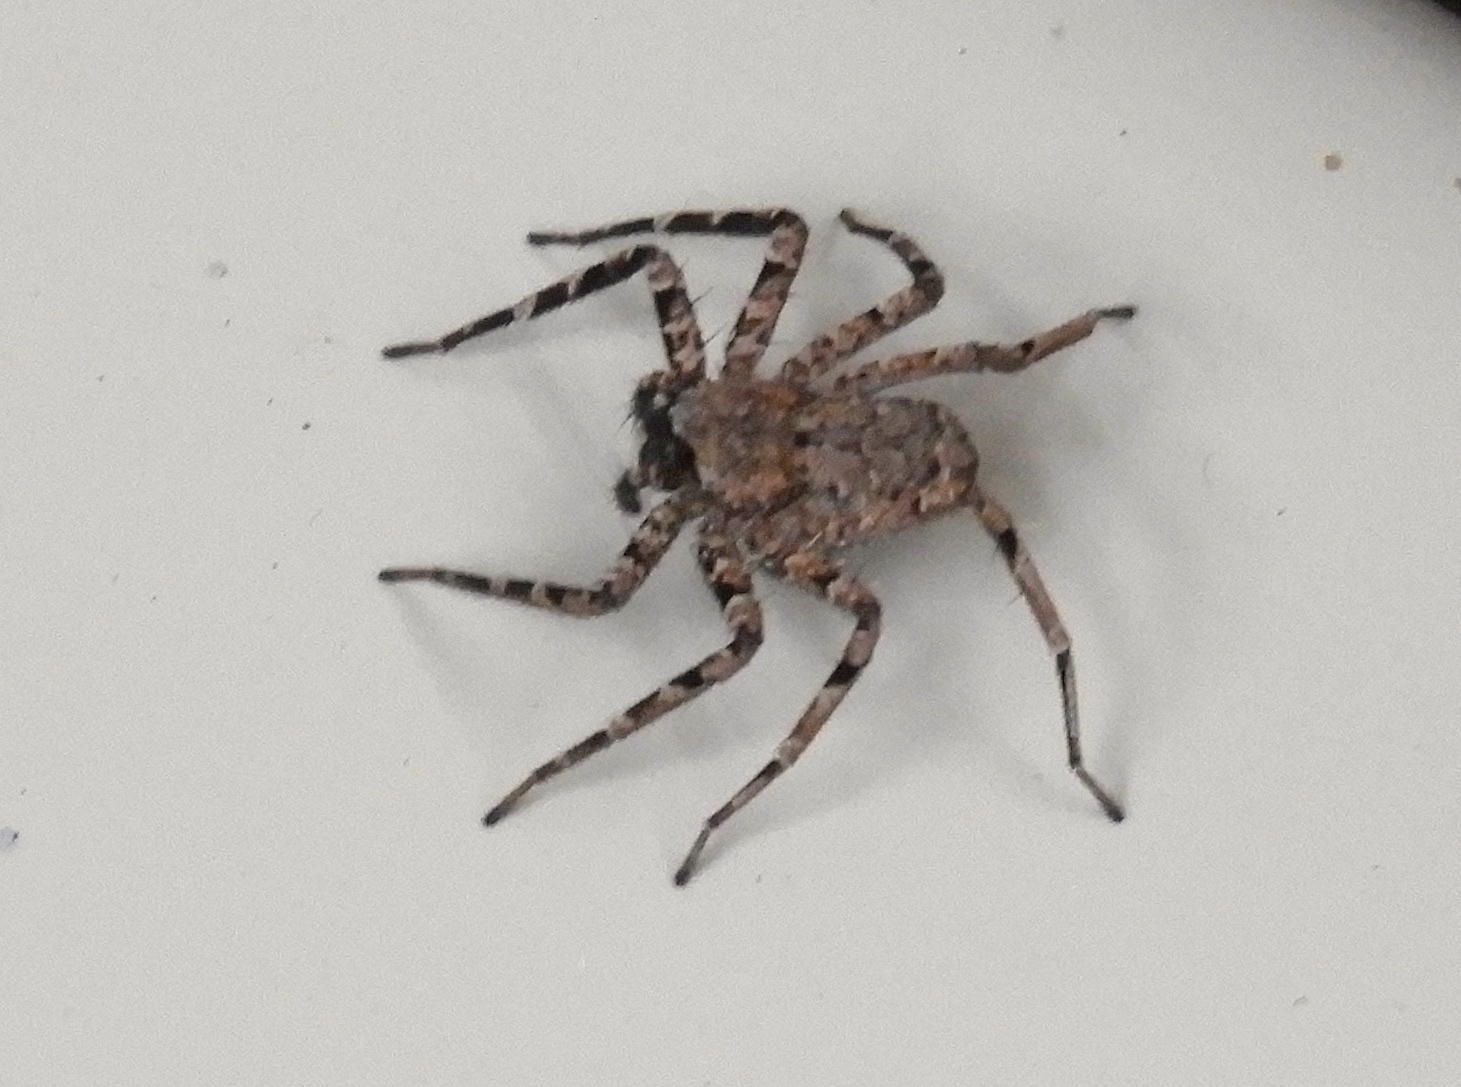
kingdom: Animalia
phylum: Arthropoda
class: Arachnida
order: Araneae
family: Selenopidae
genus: Selenops
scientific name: Selenops
